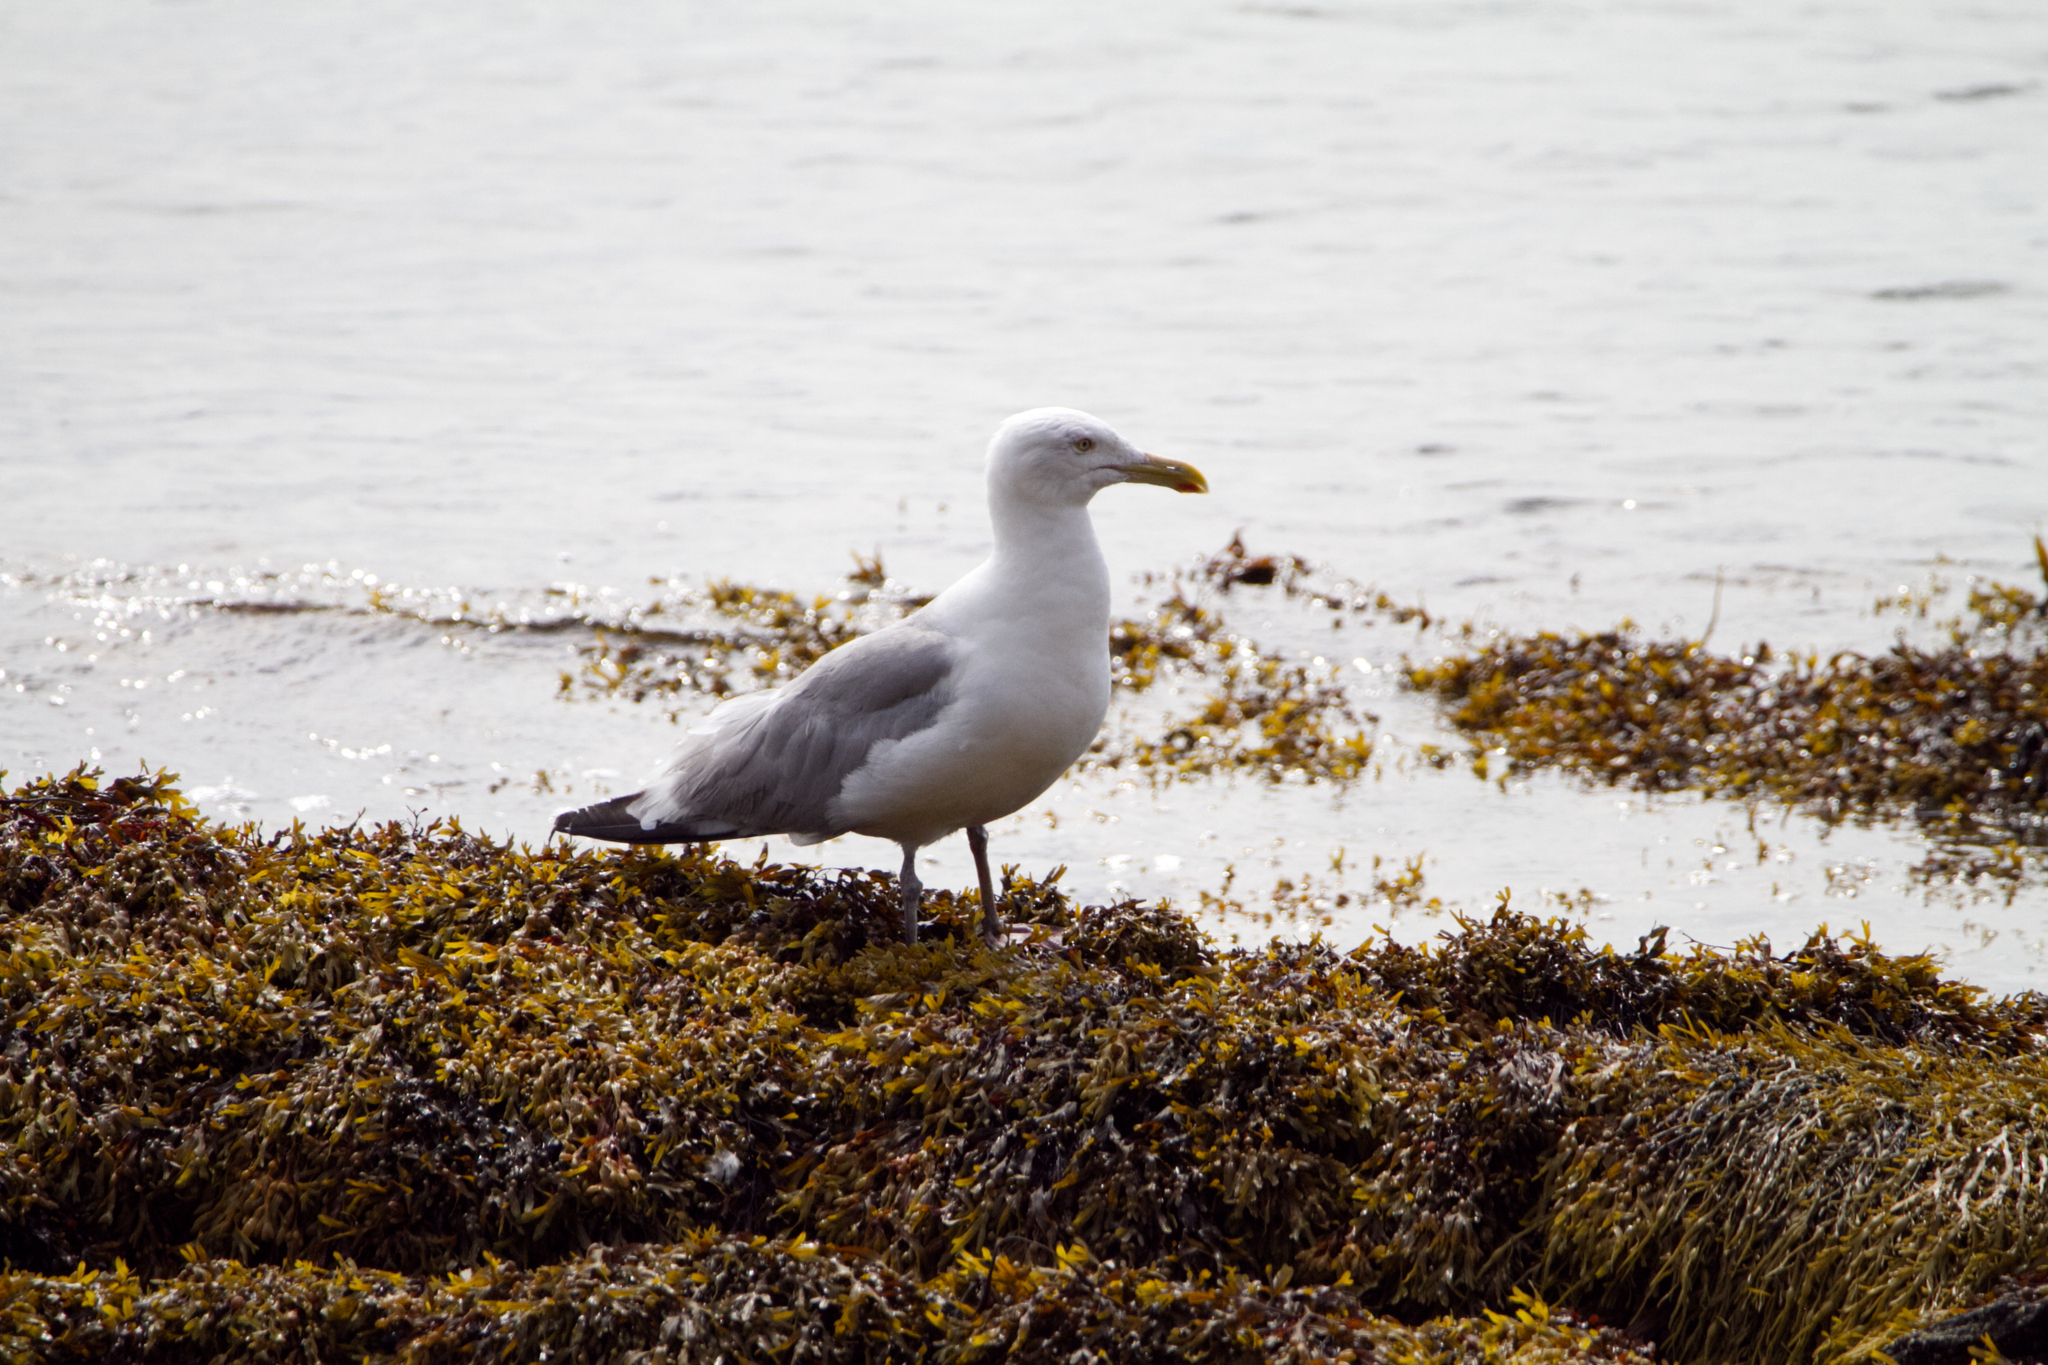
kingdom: Animalia
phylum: Chordata
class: Aves
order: Charadriiformes
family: Laridae
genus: Larus
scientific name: Larus argentatus
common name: Herring gull
